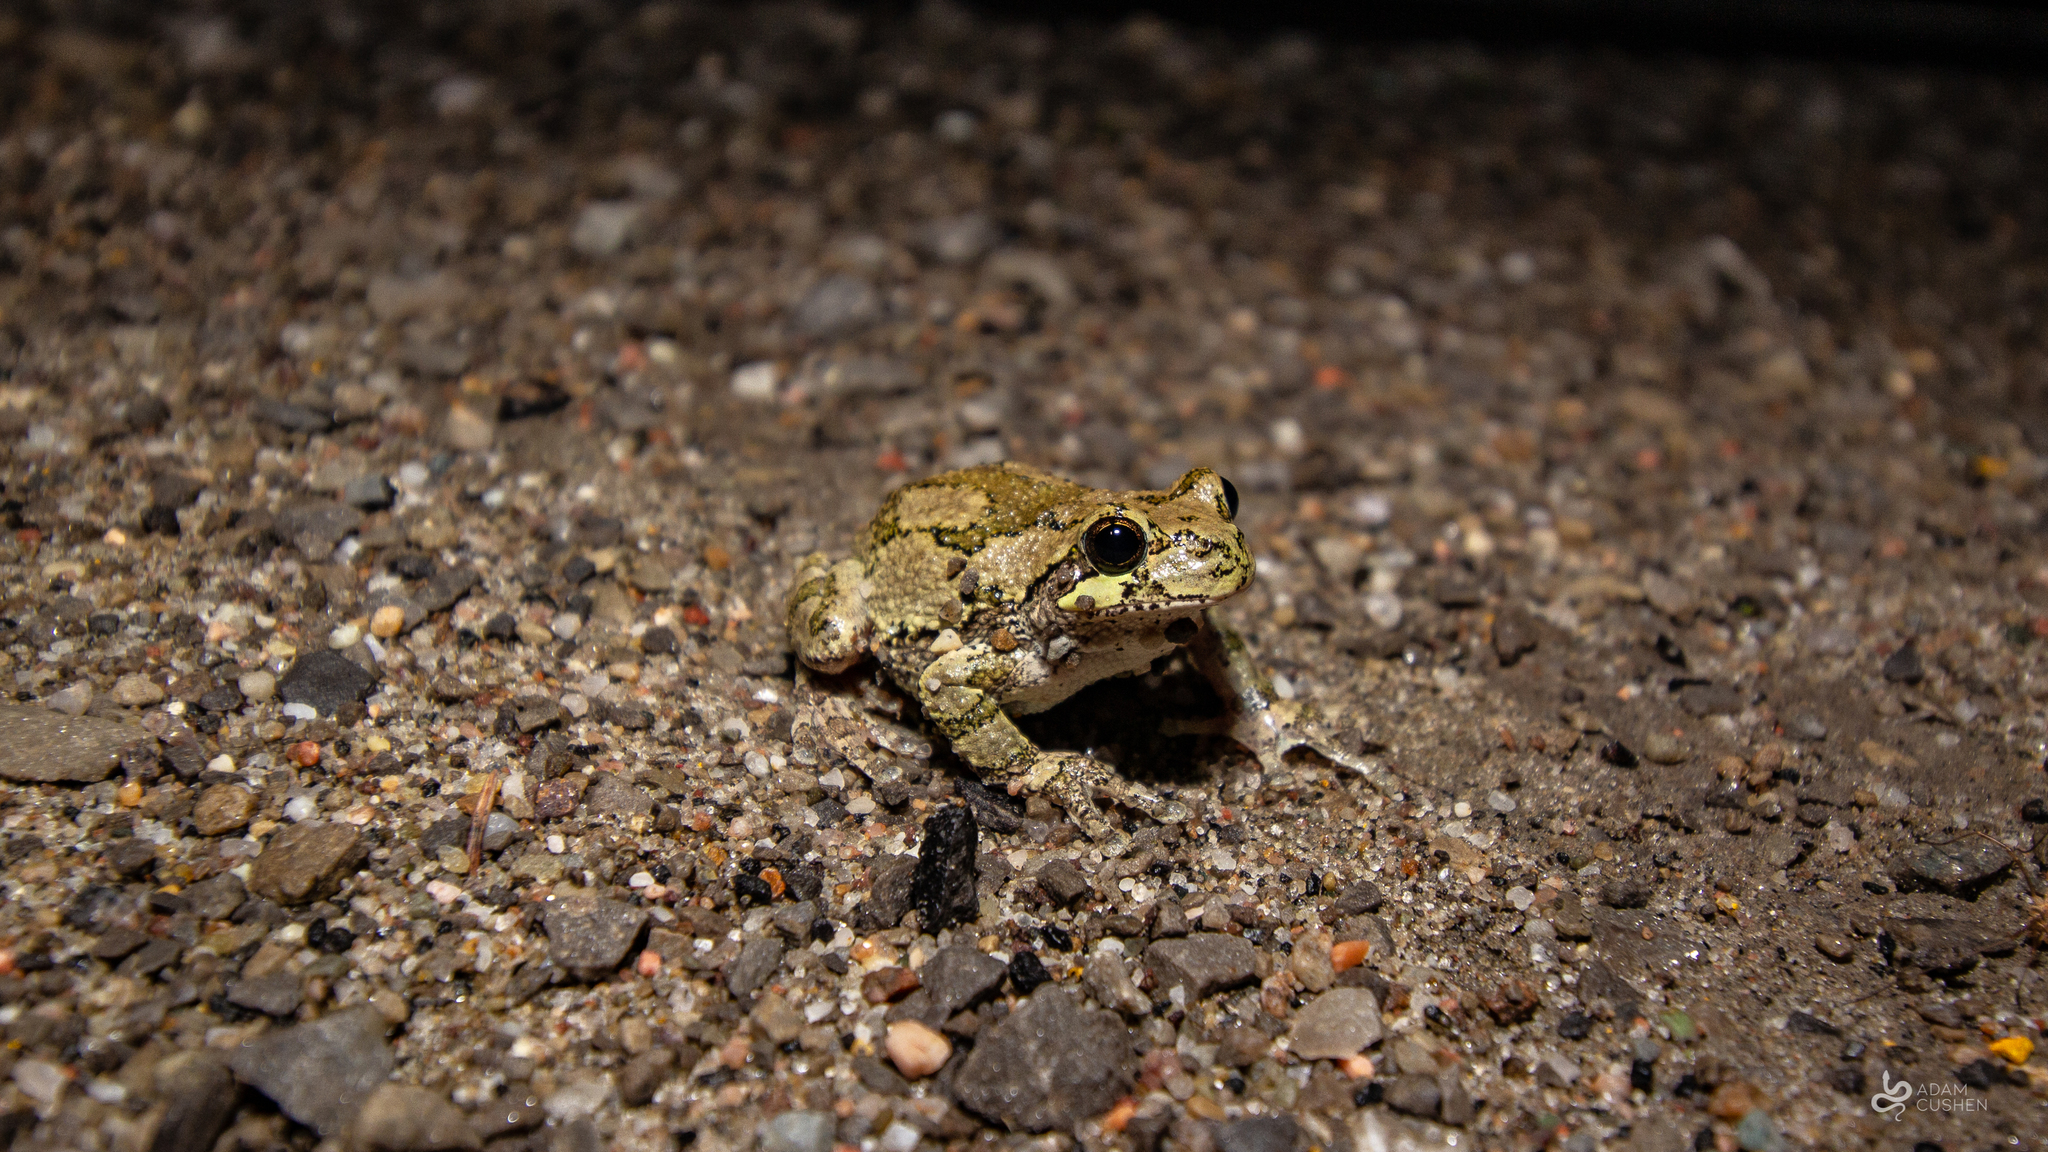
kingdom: Animalia
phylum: Chordata
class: Amphibia
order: Anura
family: Hylidae
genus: Dryophytes
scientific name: Dryophytes versicolor
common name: Gray treefrog
